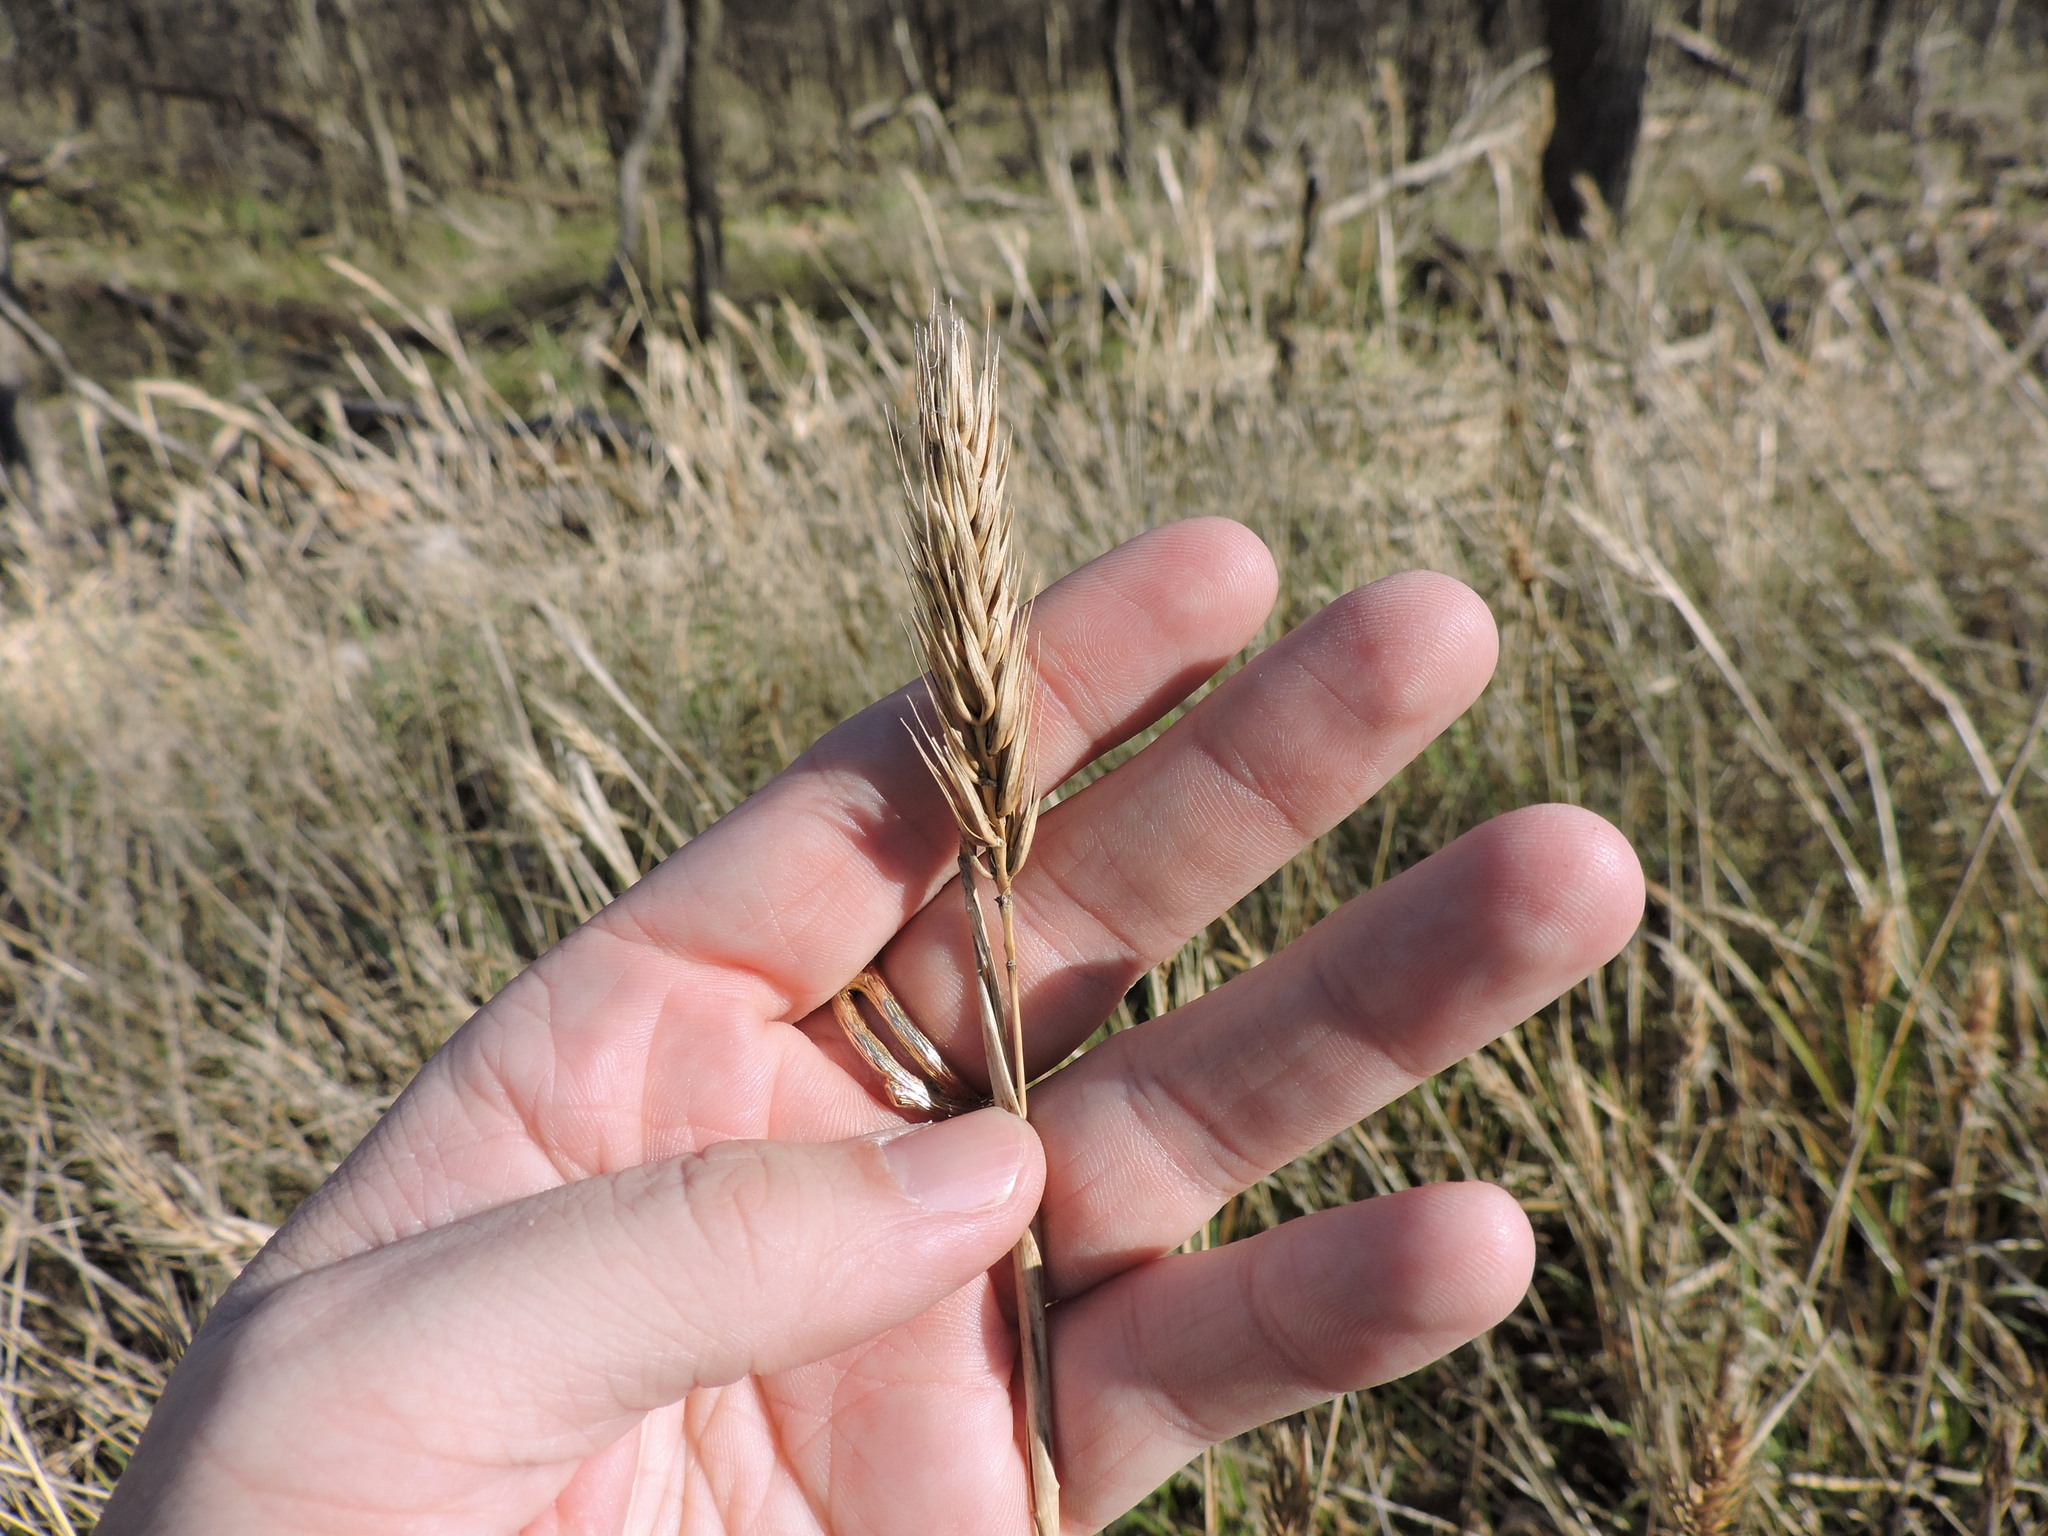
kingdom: Plantae
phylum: Tracheophyta
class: Liliopsida
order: Poales
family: Poaceae
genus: Elymus
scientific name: Elymus virginicus
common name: Common eastern wildrye
